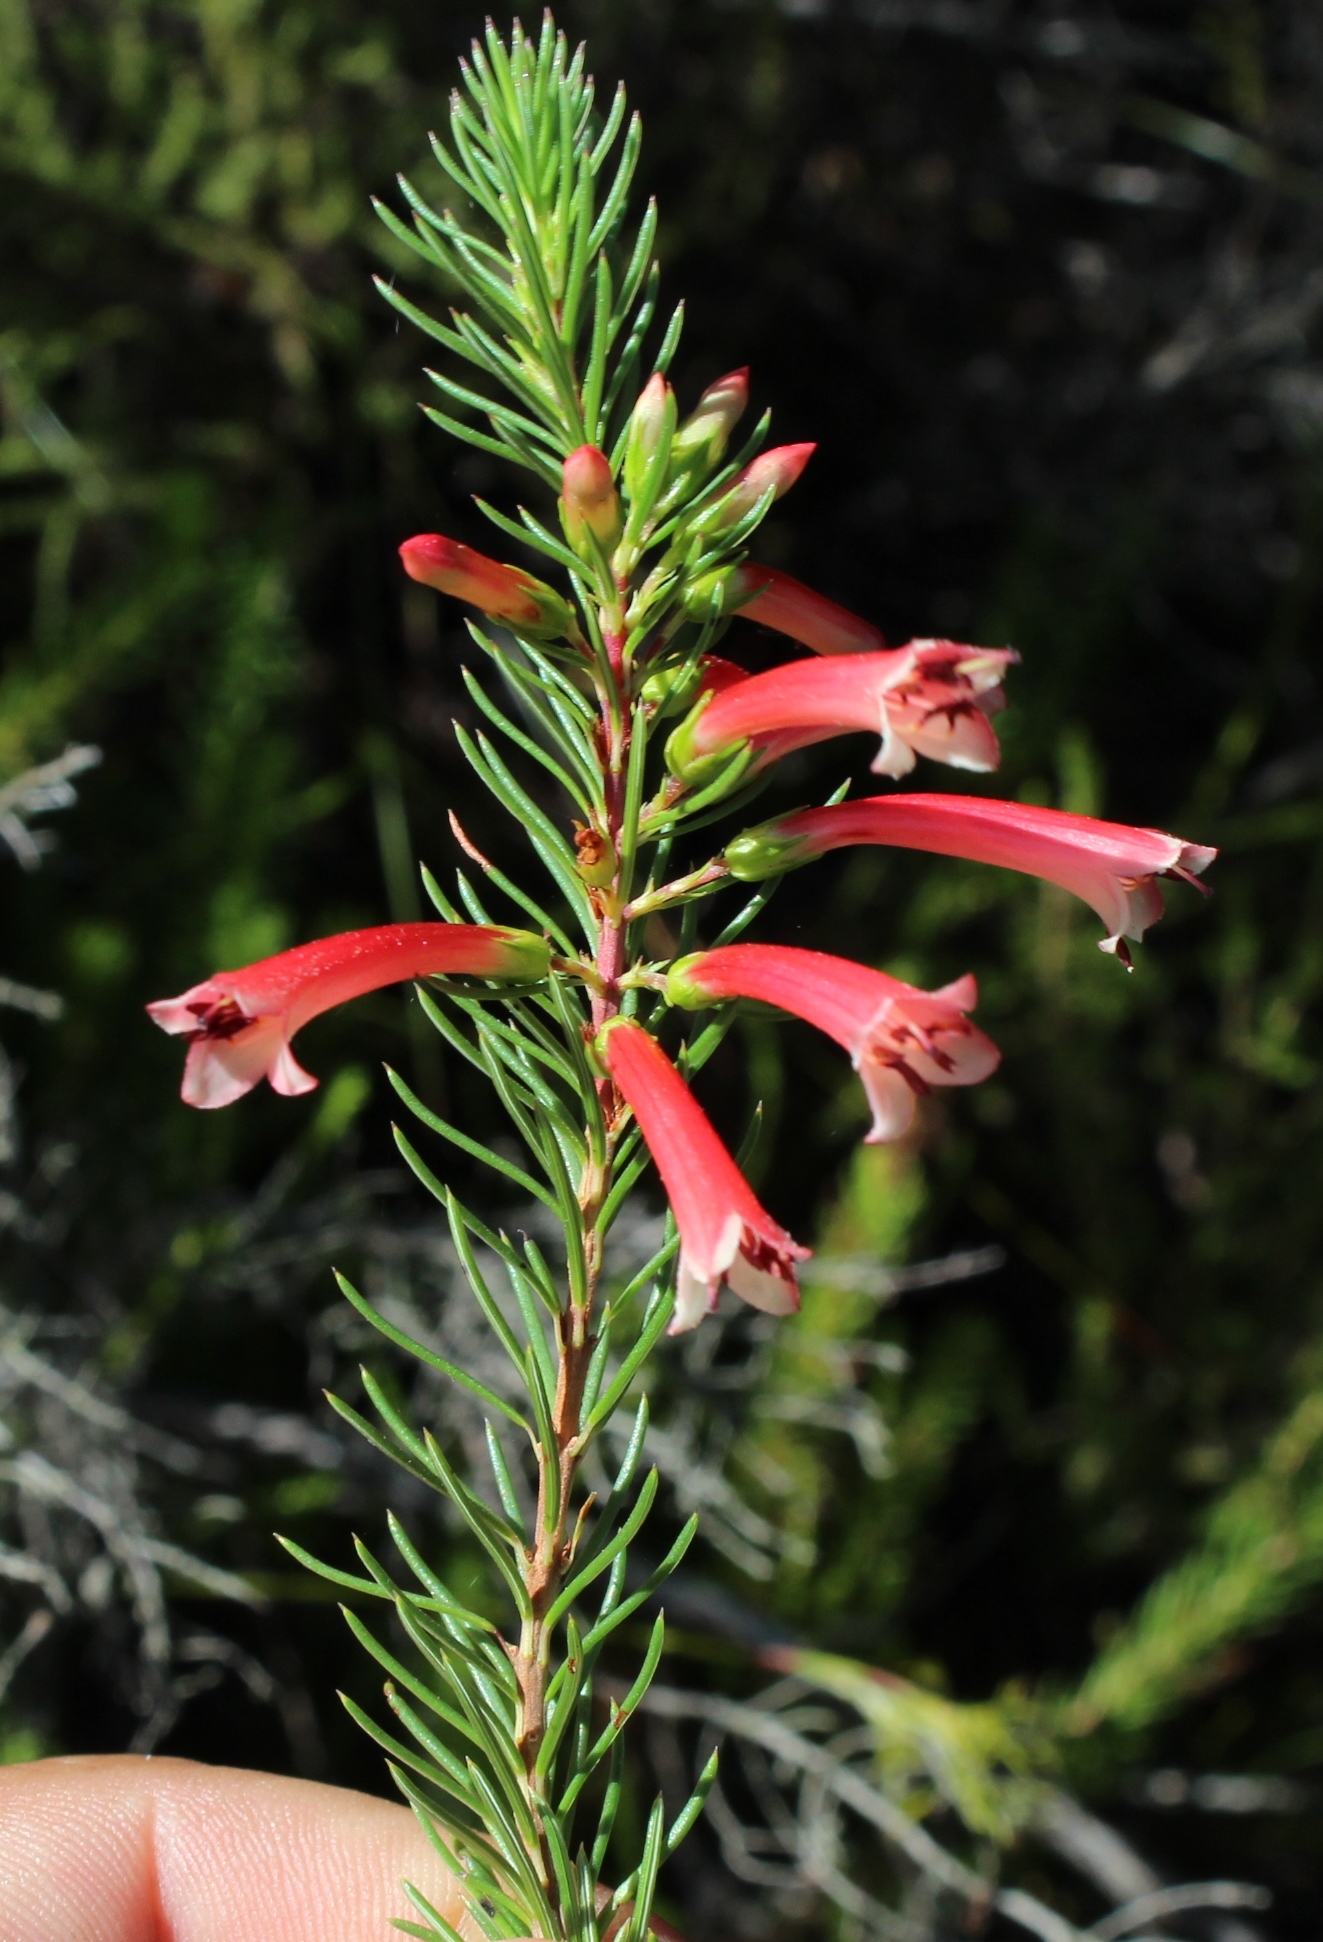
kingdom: Plantae
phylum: Tracheophyta
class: Magnoliopsida
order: Ericales
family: Ericaceae
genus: Erica
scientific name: Erica grandiflora
